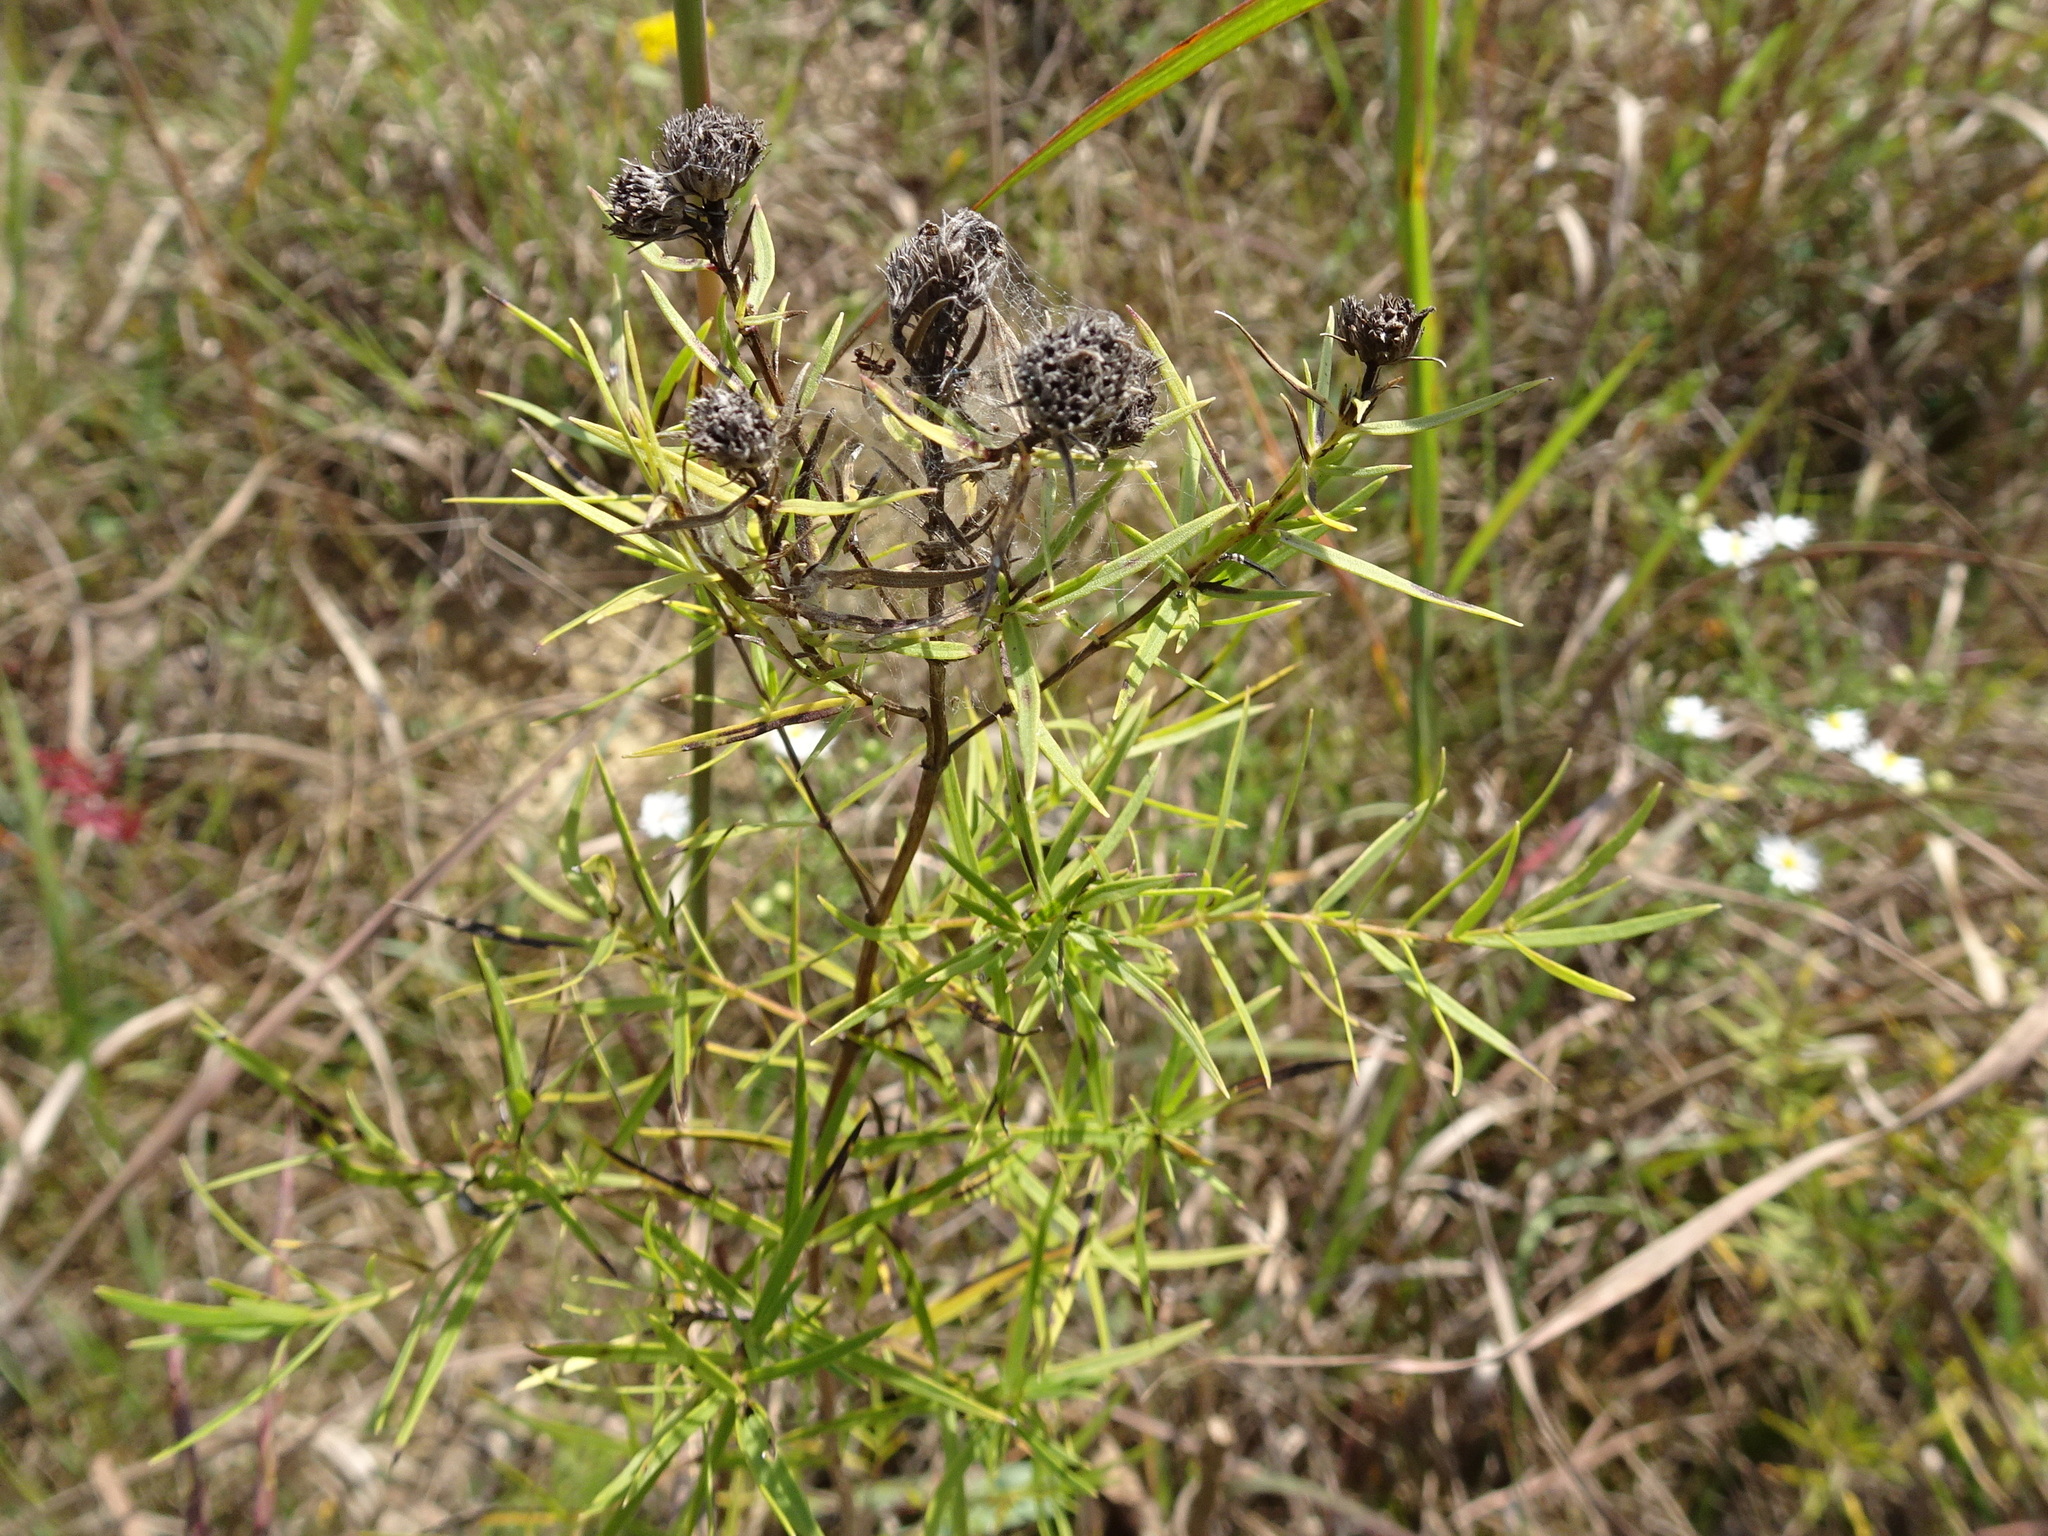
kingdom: Plantae
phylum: Tracheophyta
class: Magnoliopsida
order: Lamiales
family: Lamiaceae
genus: Pycnanthemum
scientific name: Pycnanthemum tenuifolium
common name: Narrow-leaf mountain-mint
